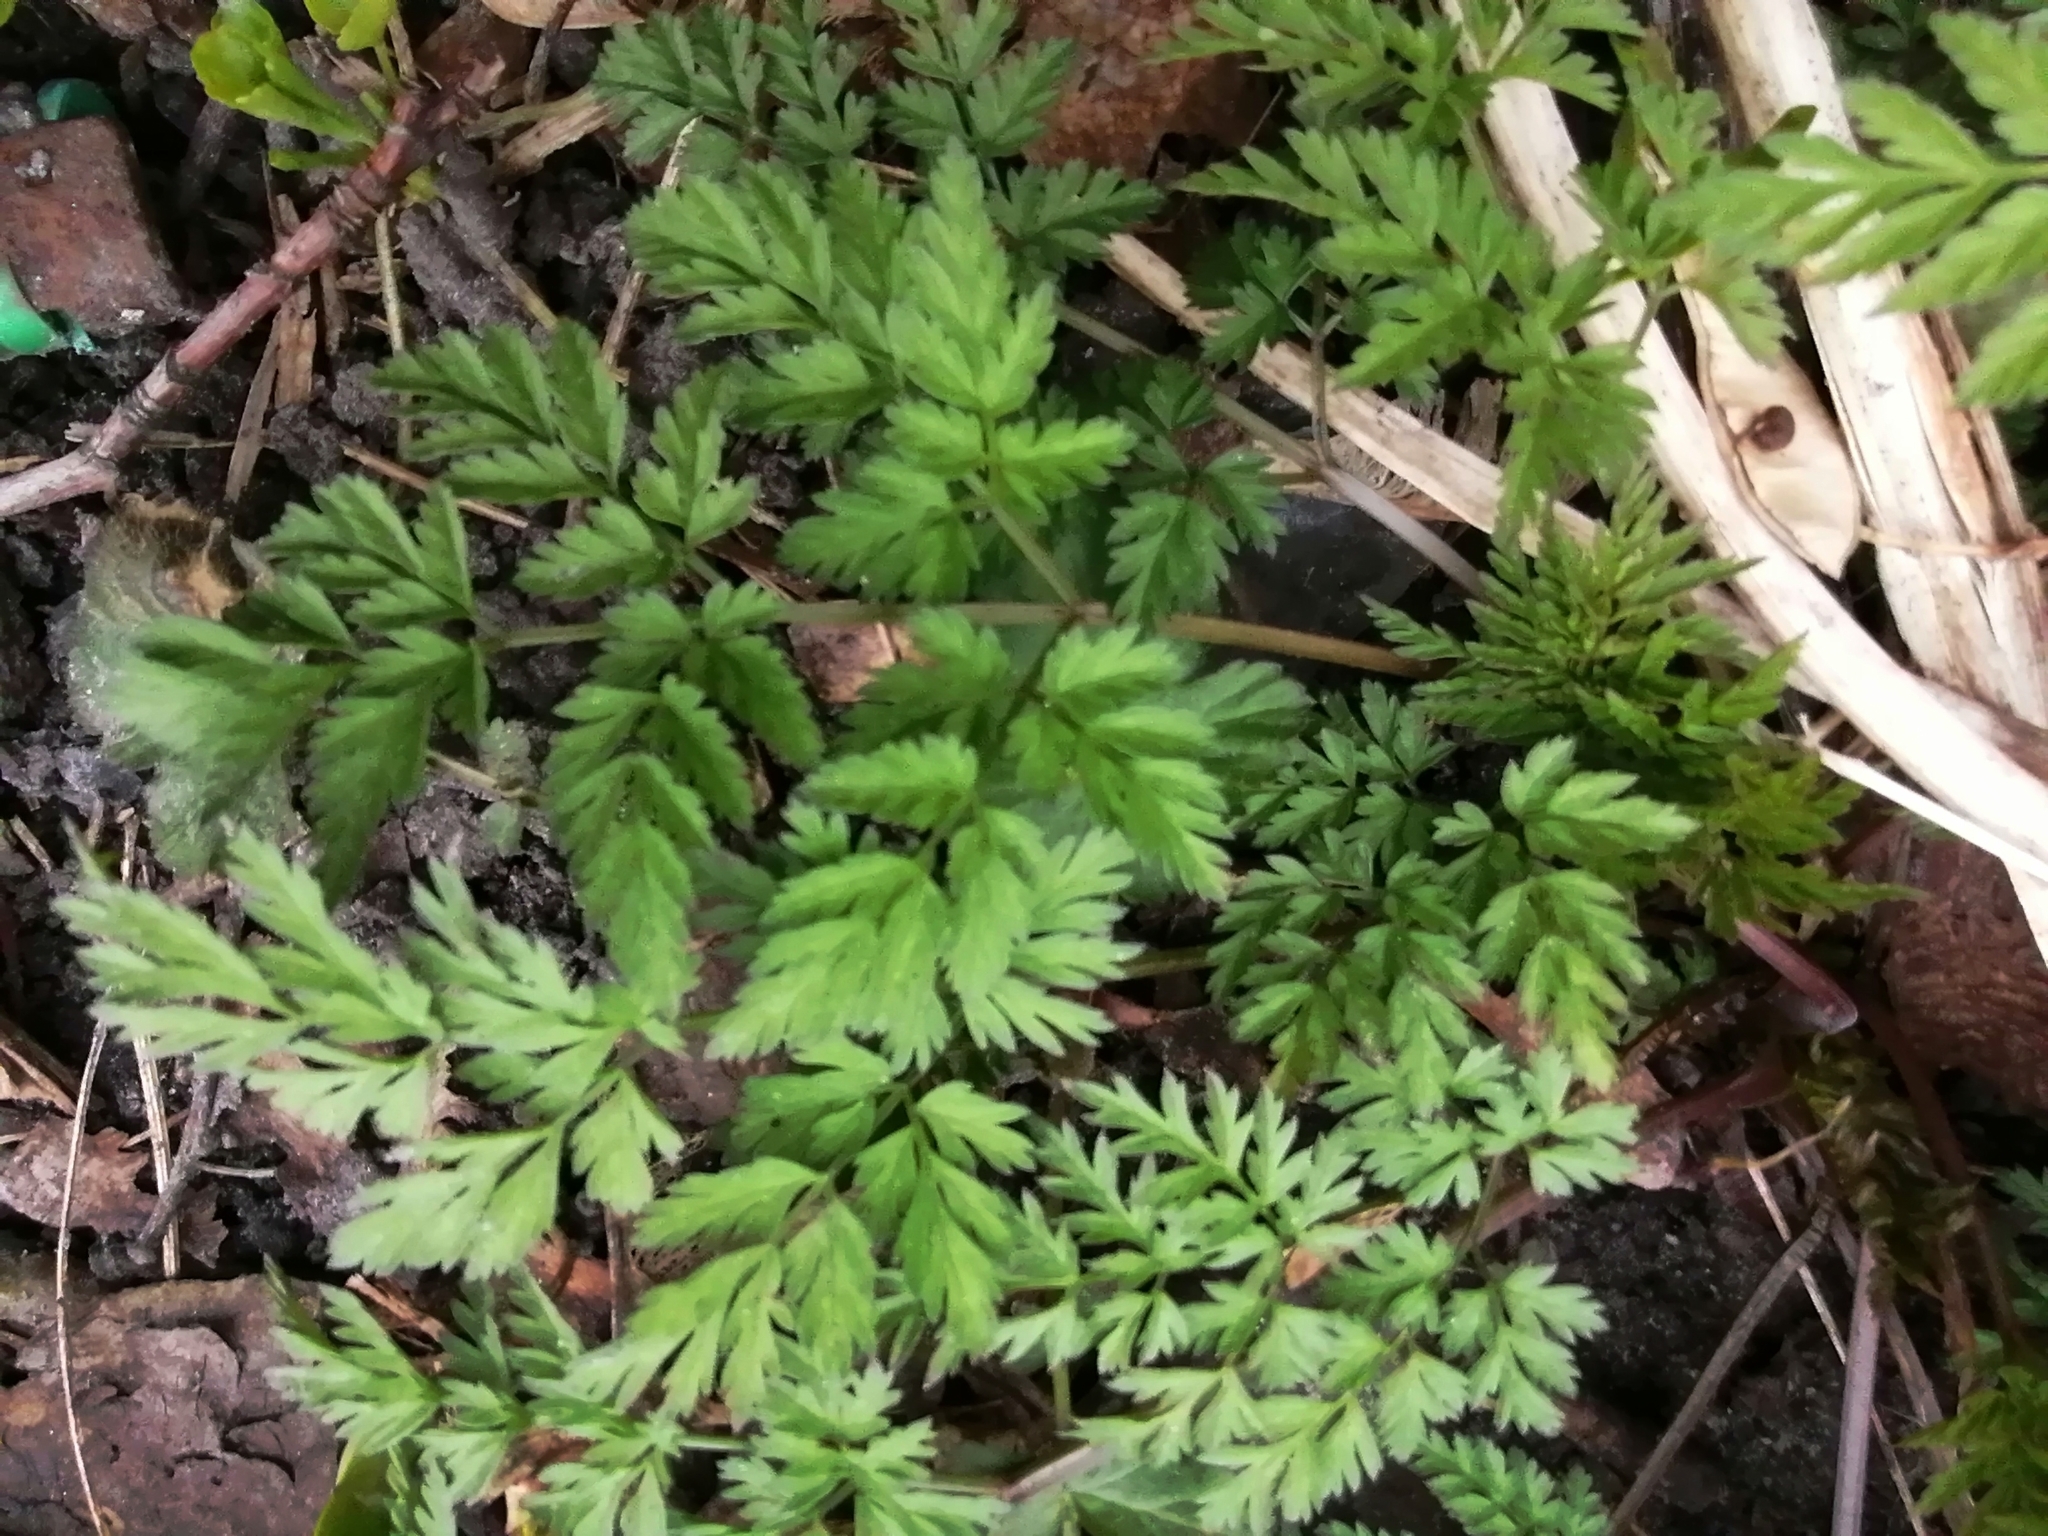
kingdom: Plantae
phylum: Tracheophyta
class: Magnoliopsida
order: Apiales
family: Apiaceae
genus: Anthriscus
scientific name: Anthriscus sylvestris
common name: Cow parsley
